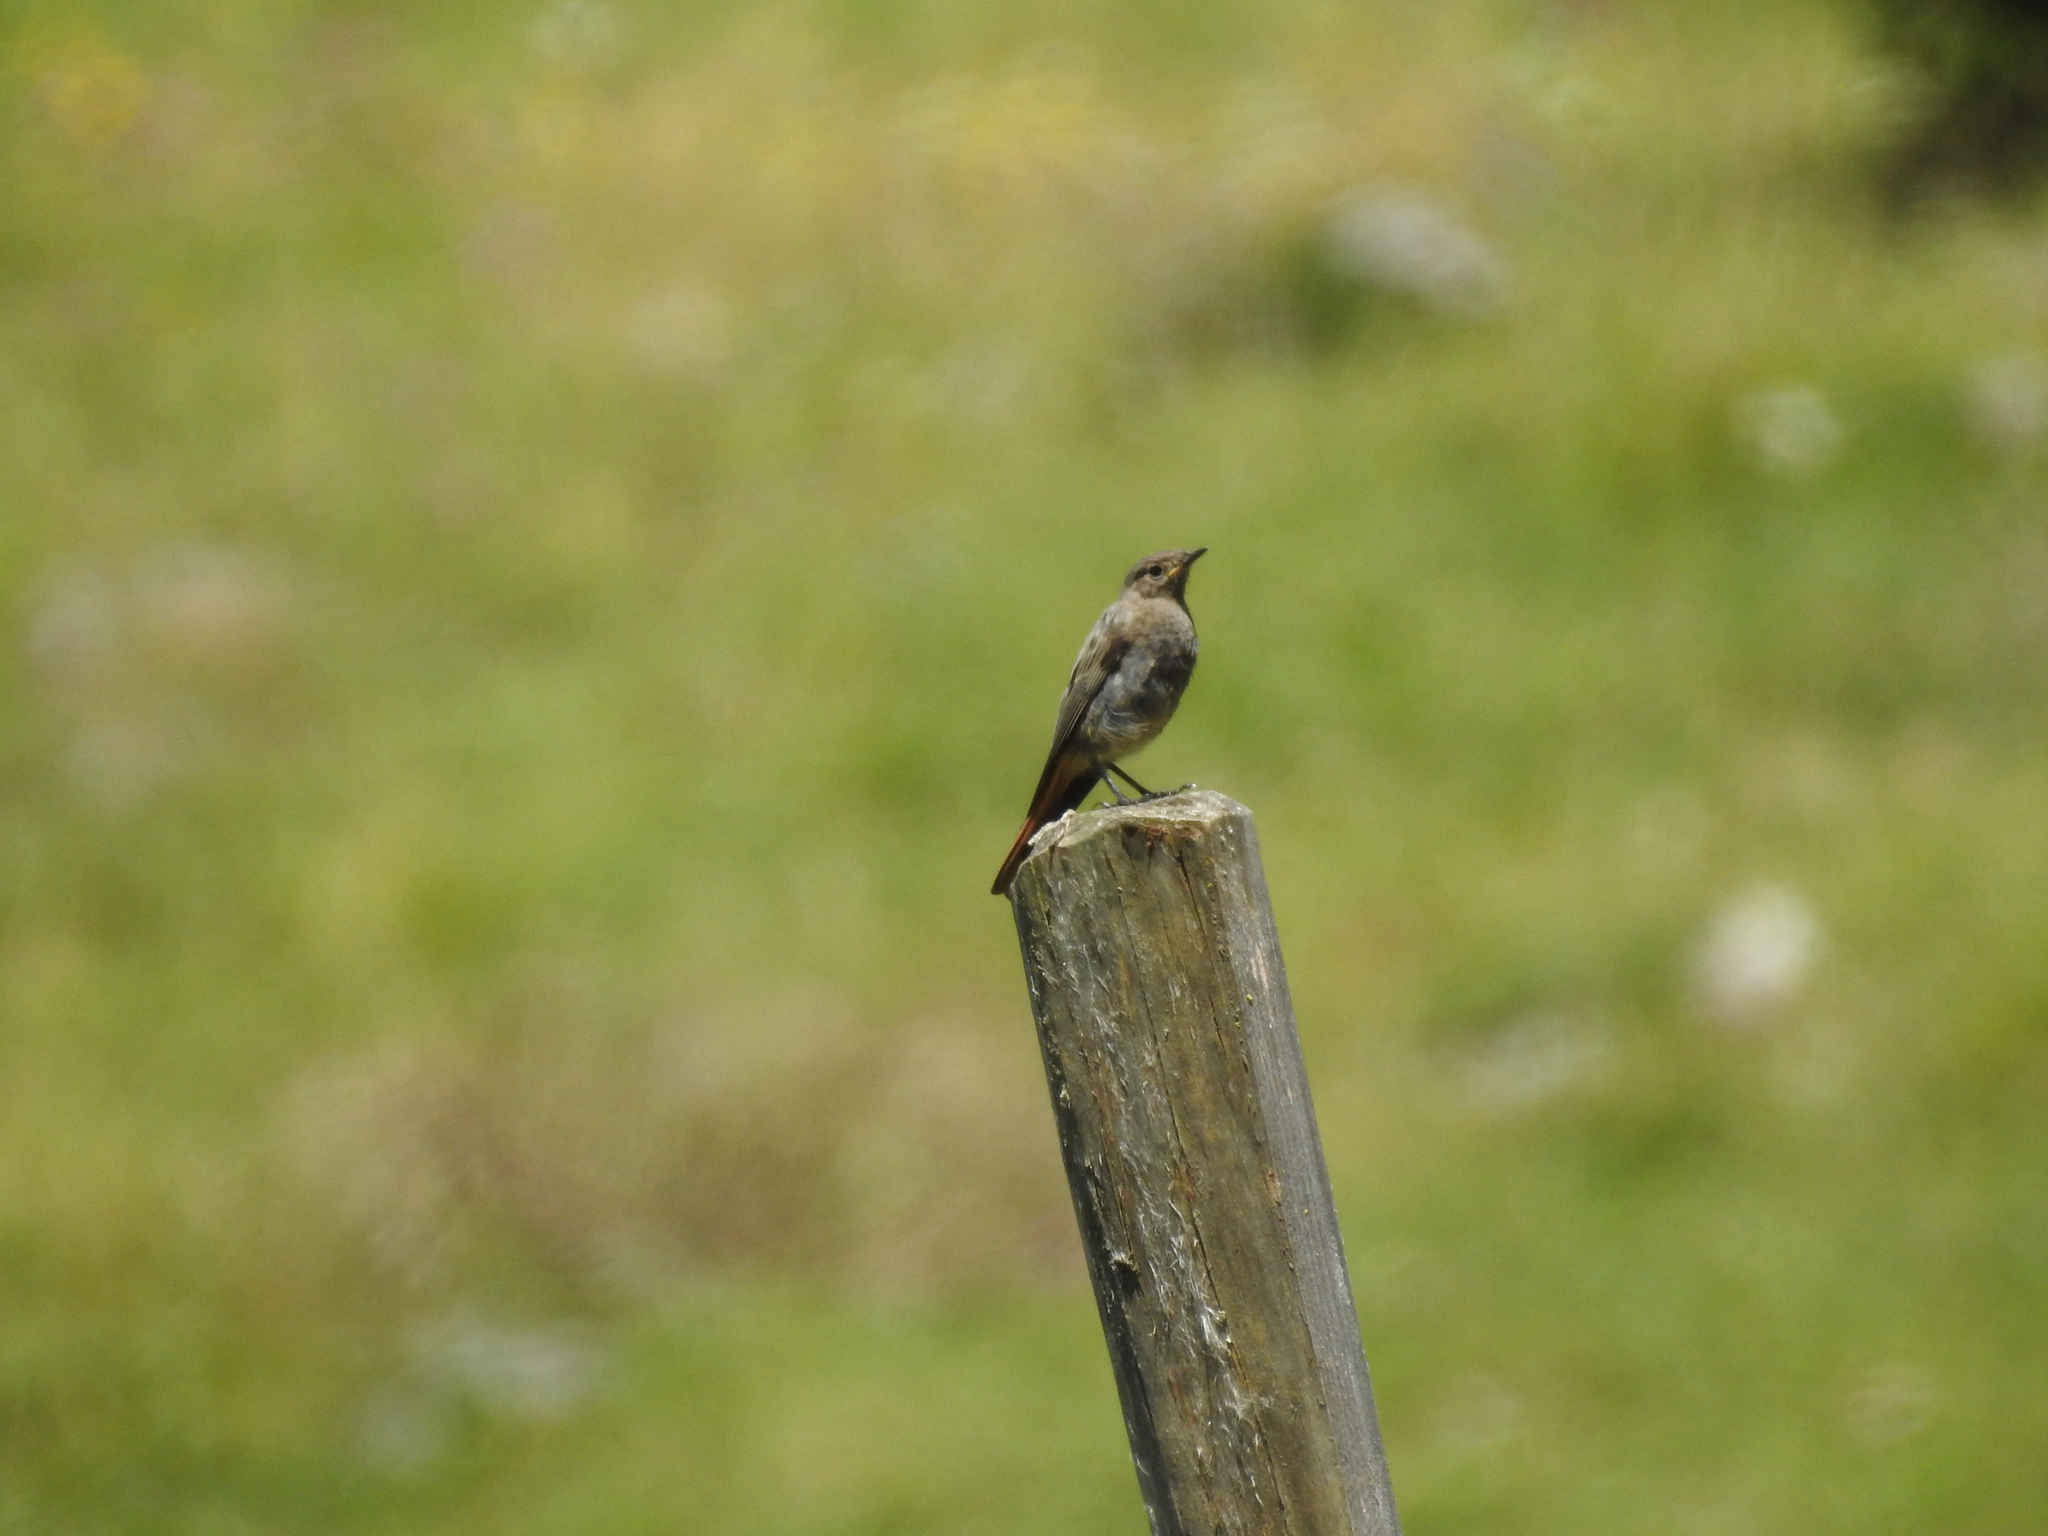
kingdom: Animalia
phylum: Chordata
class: Aves
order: Passeriformes
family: Muscicapidae
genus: Phoenicurus
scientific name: Phoenicurus ochruros
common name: Black redstart
